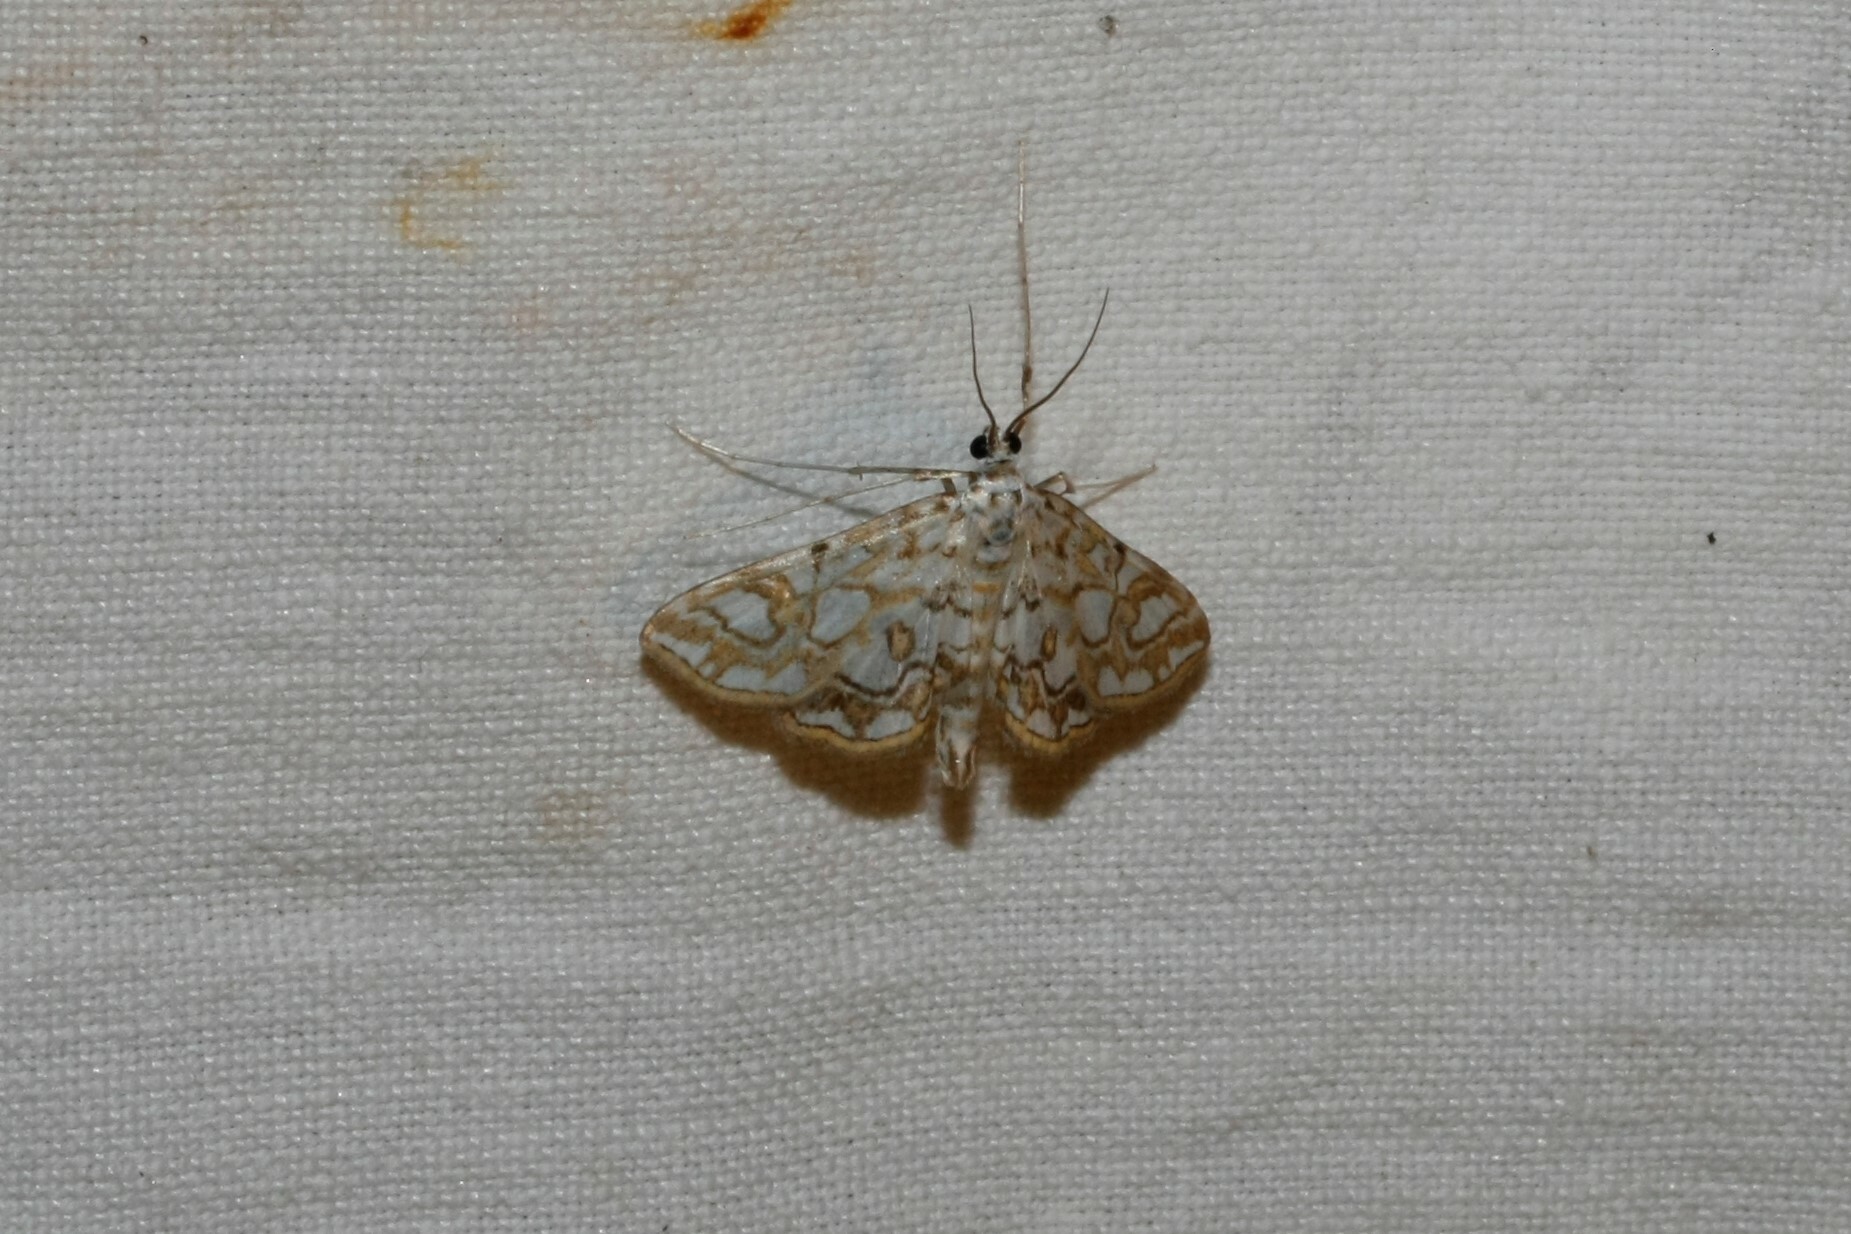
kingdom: Animalia
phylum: Arthropoda
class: Insecta
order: Lepidoptera
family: Crambidae
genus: Elophila
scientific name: Elophila nymphaeata
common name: Brown china-mark
